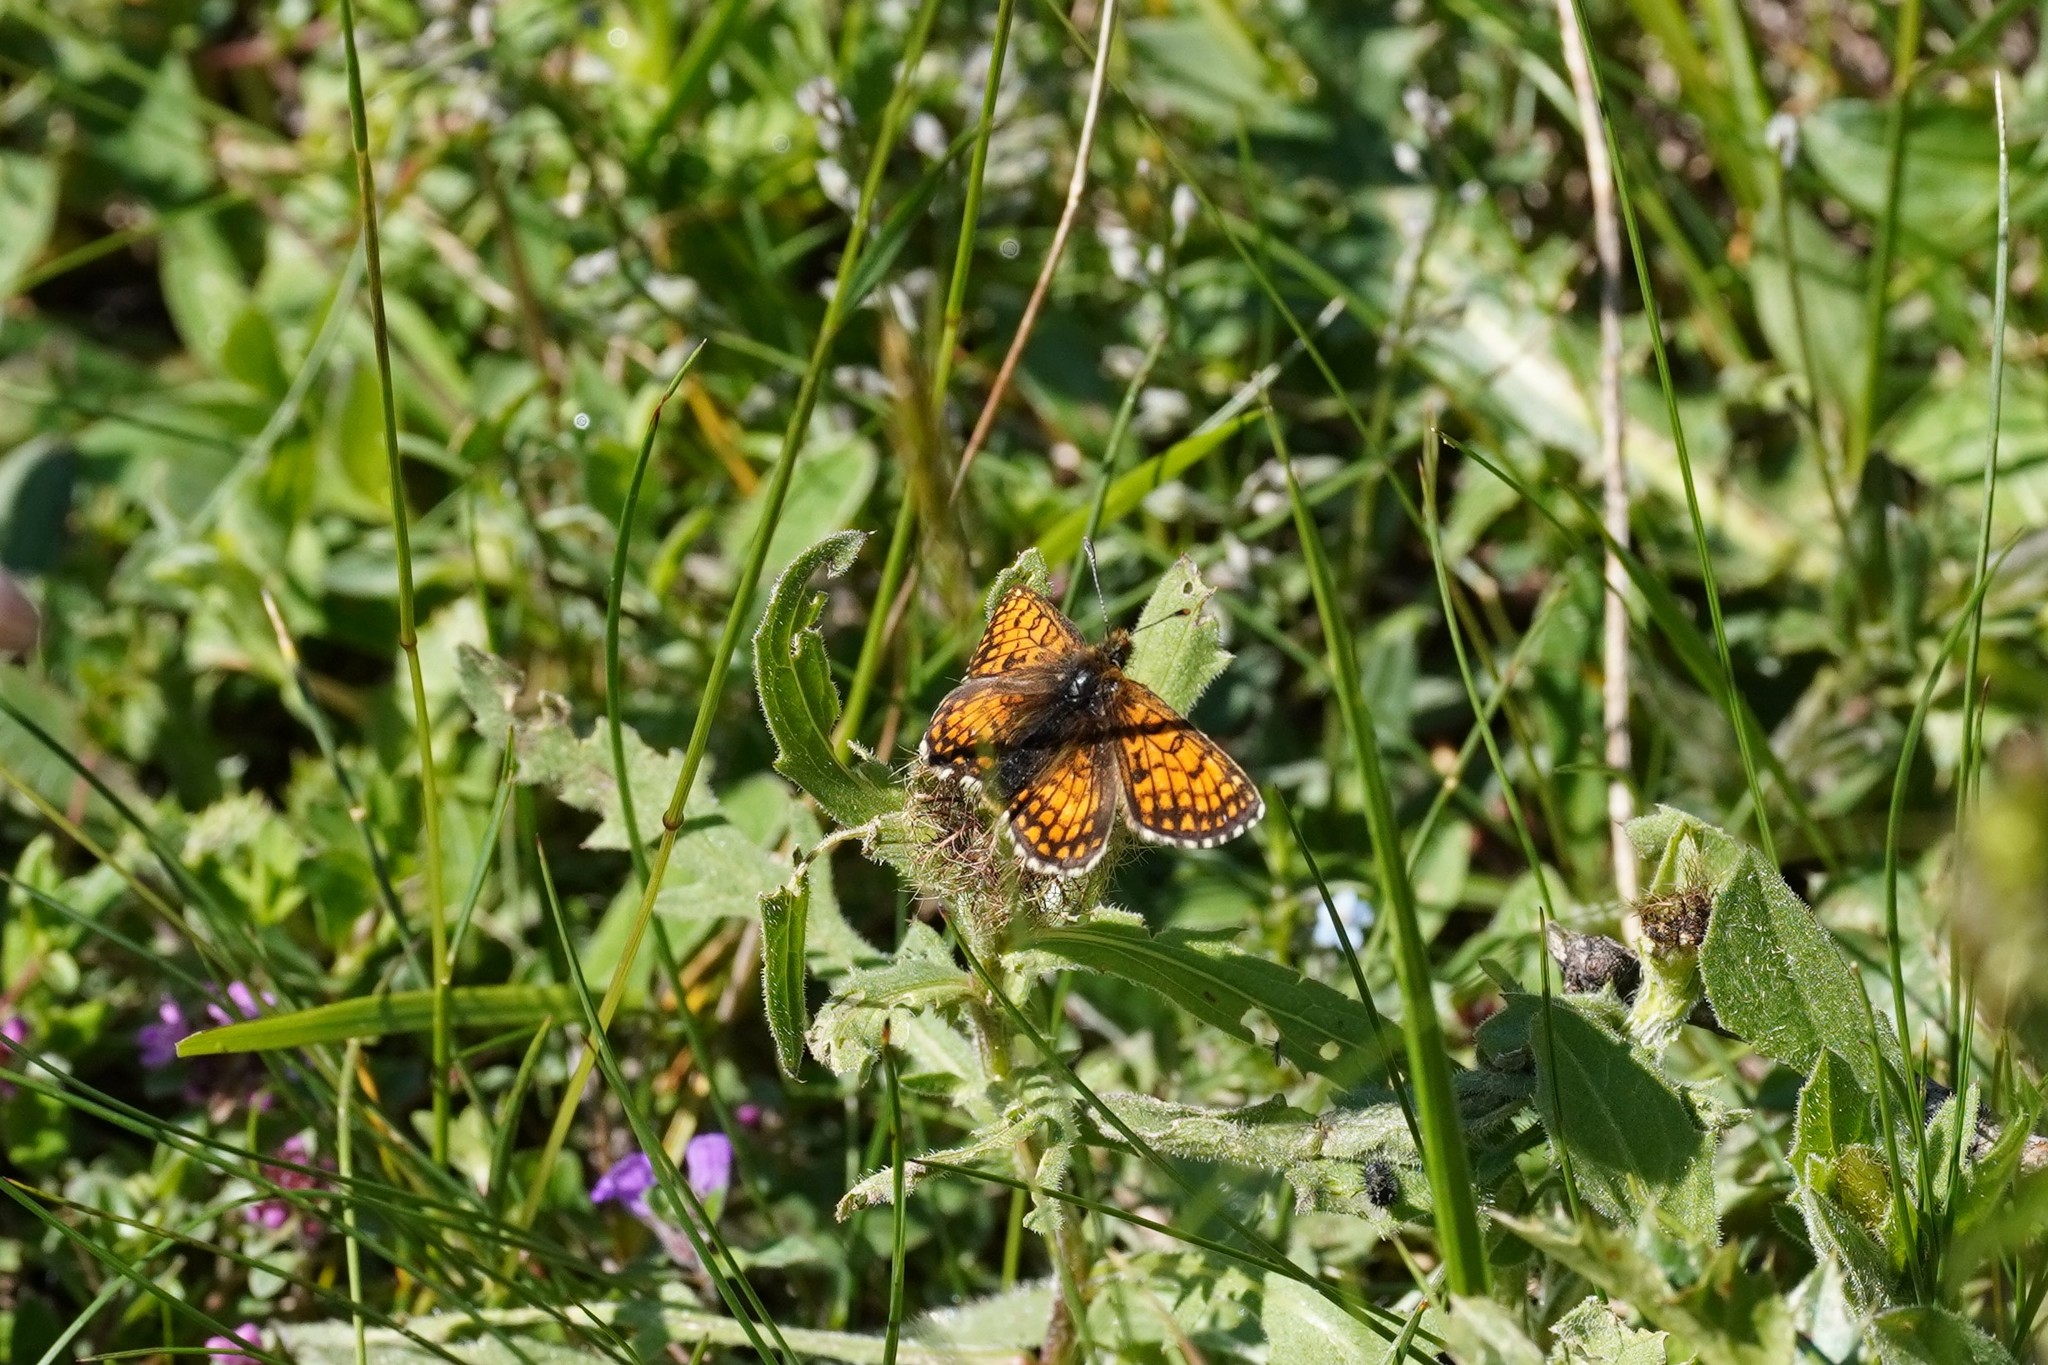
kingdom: Animalia
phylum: Arthropoda
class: Insecta
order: Lepidoptera
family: Nymphalidae
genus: Melitaea
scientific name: Melitaea varia
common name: Grisons fritillary
